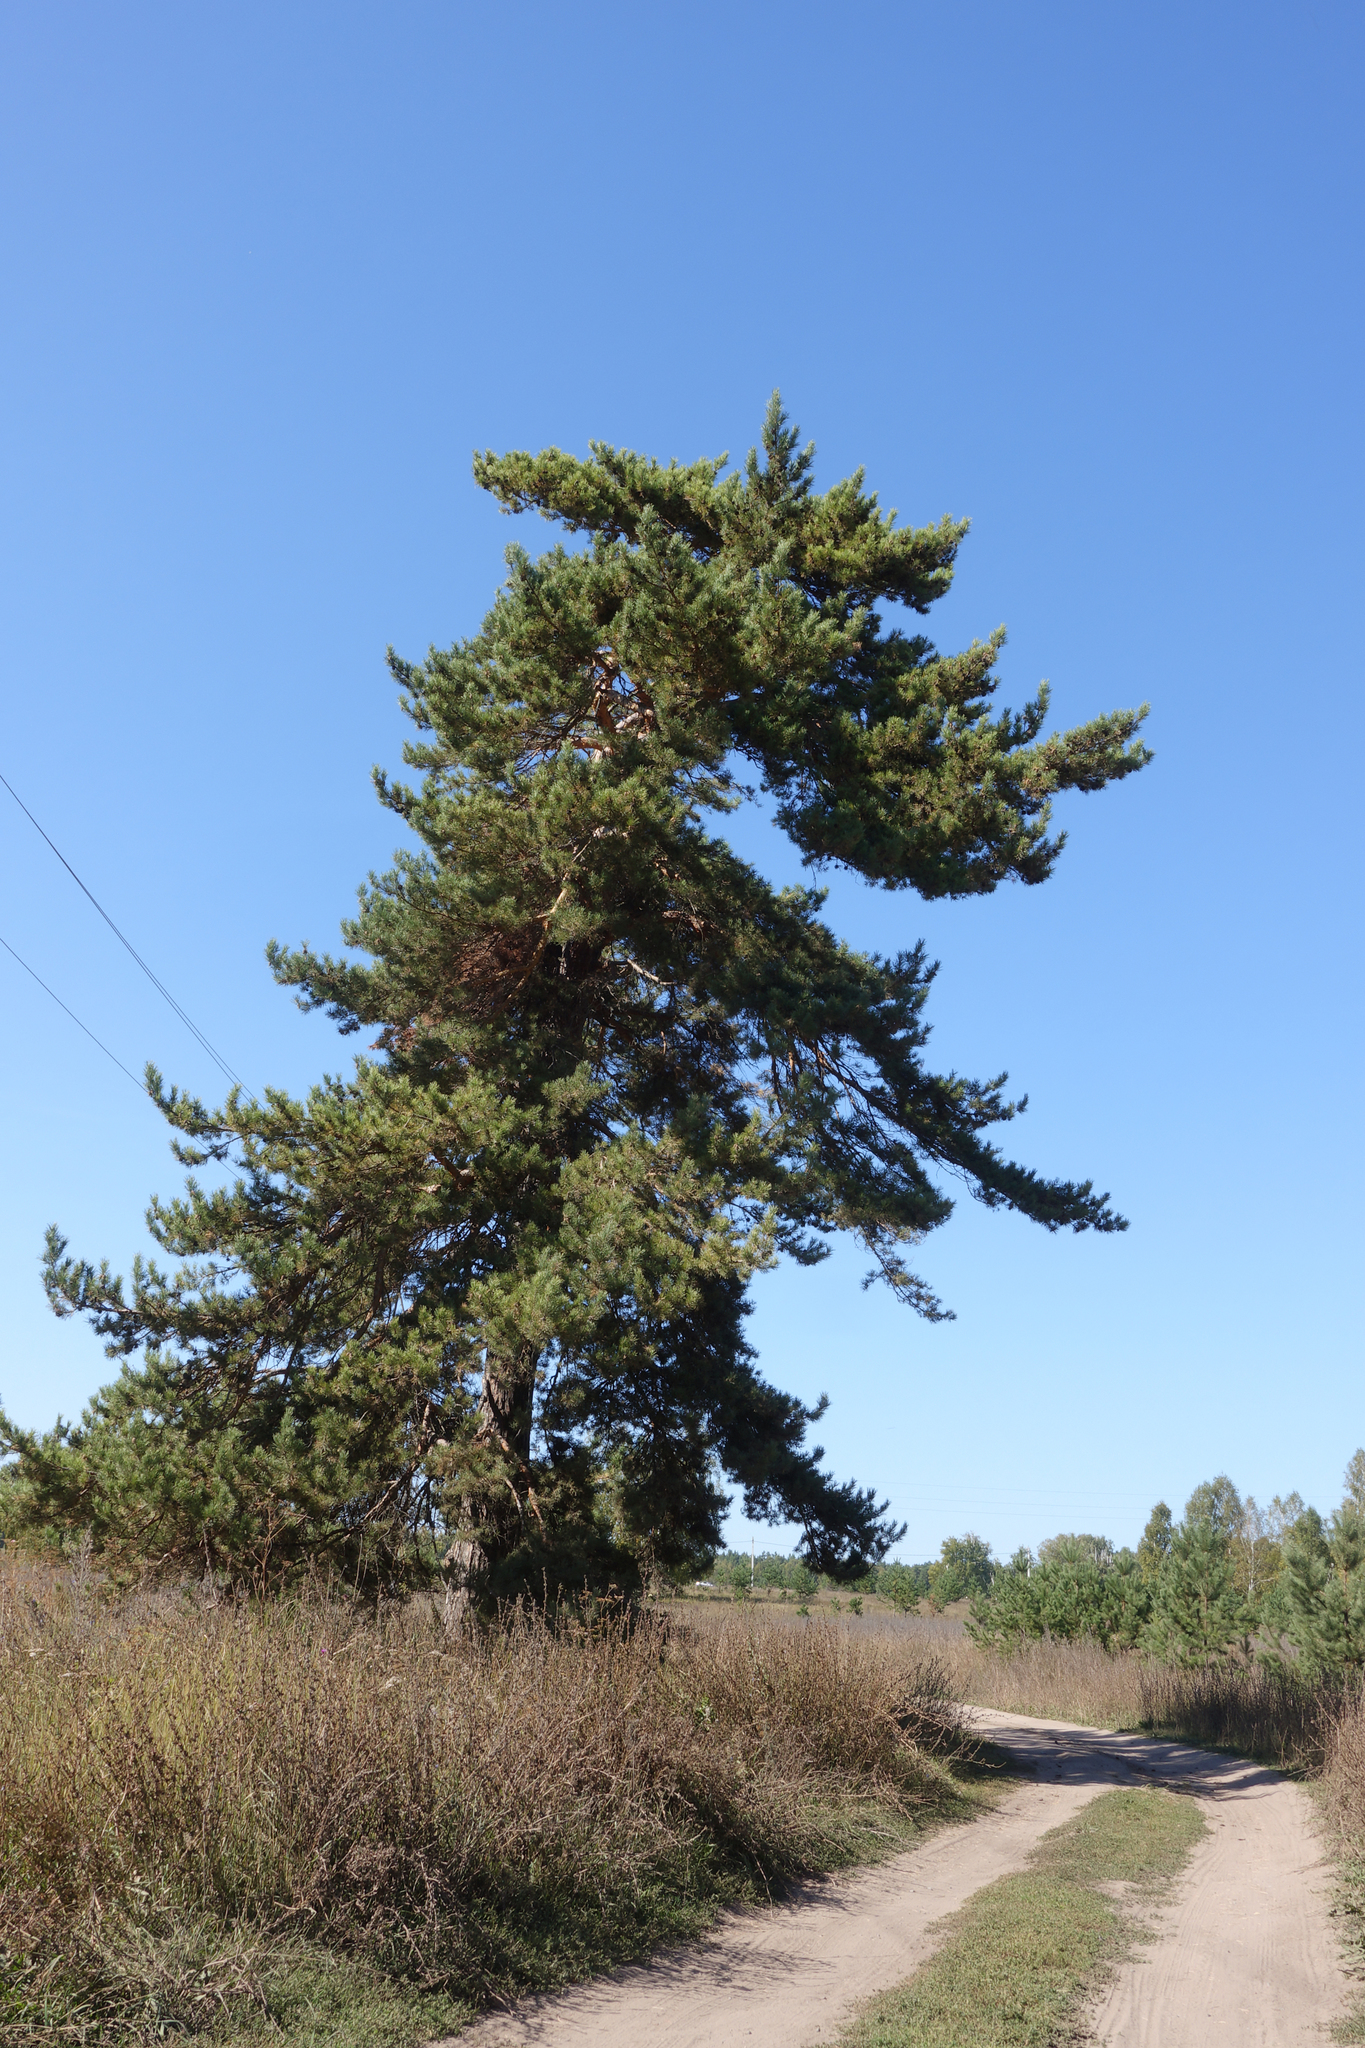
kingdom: Plantae
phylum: Tracheophyta
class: Pinopsida
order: Pinales
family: Pinaceae
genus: Pinus
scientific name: Pinus sylvestris
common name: Scots pine
